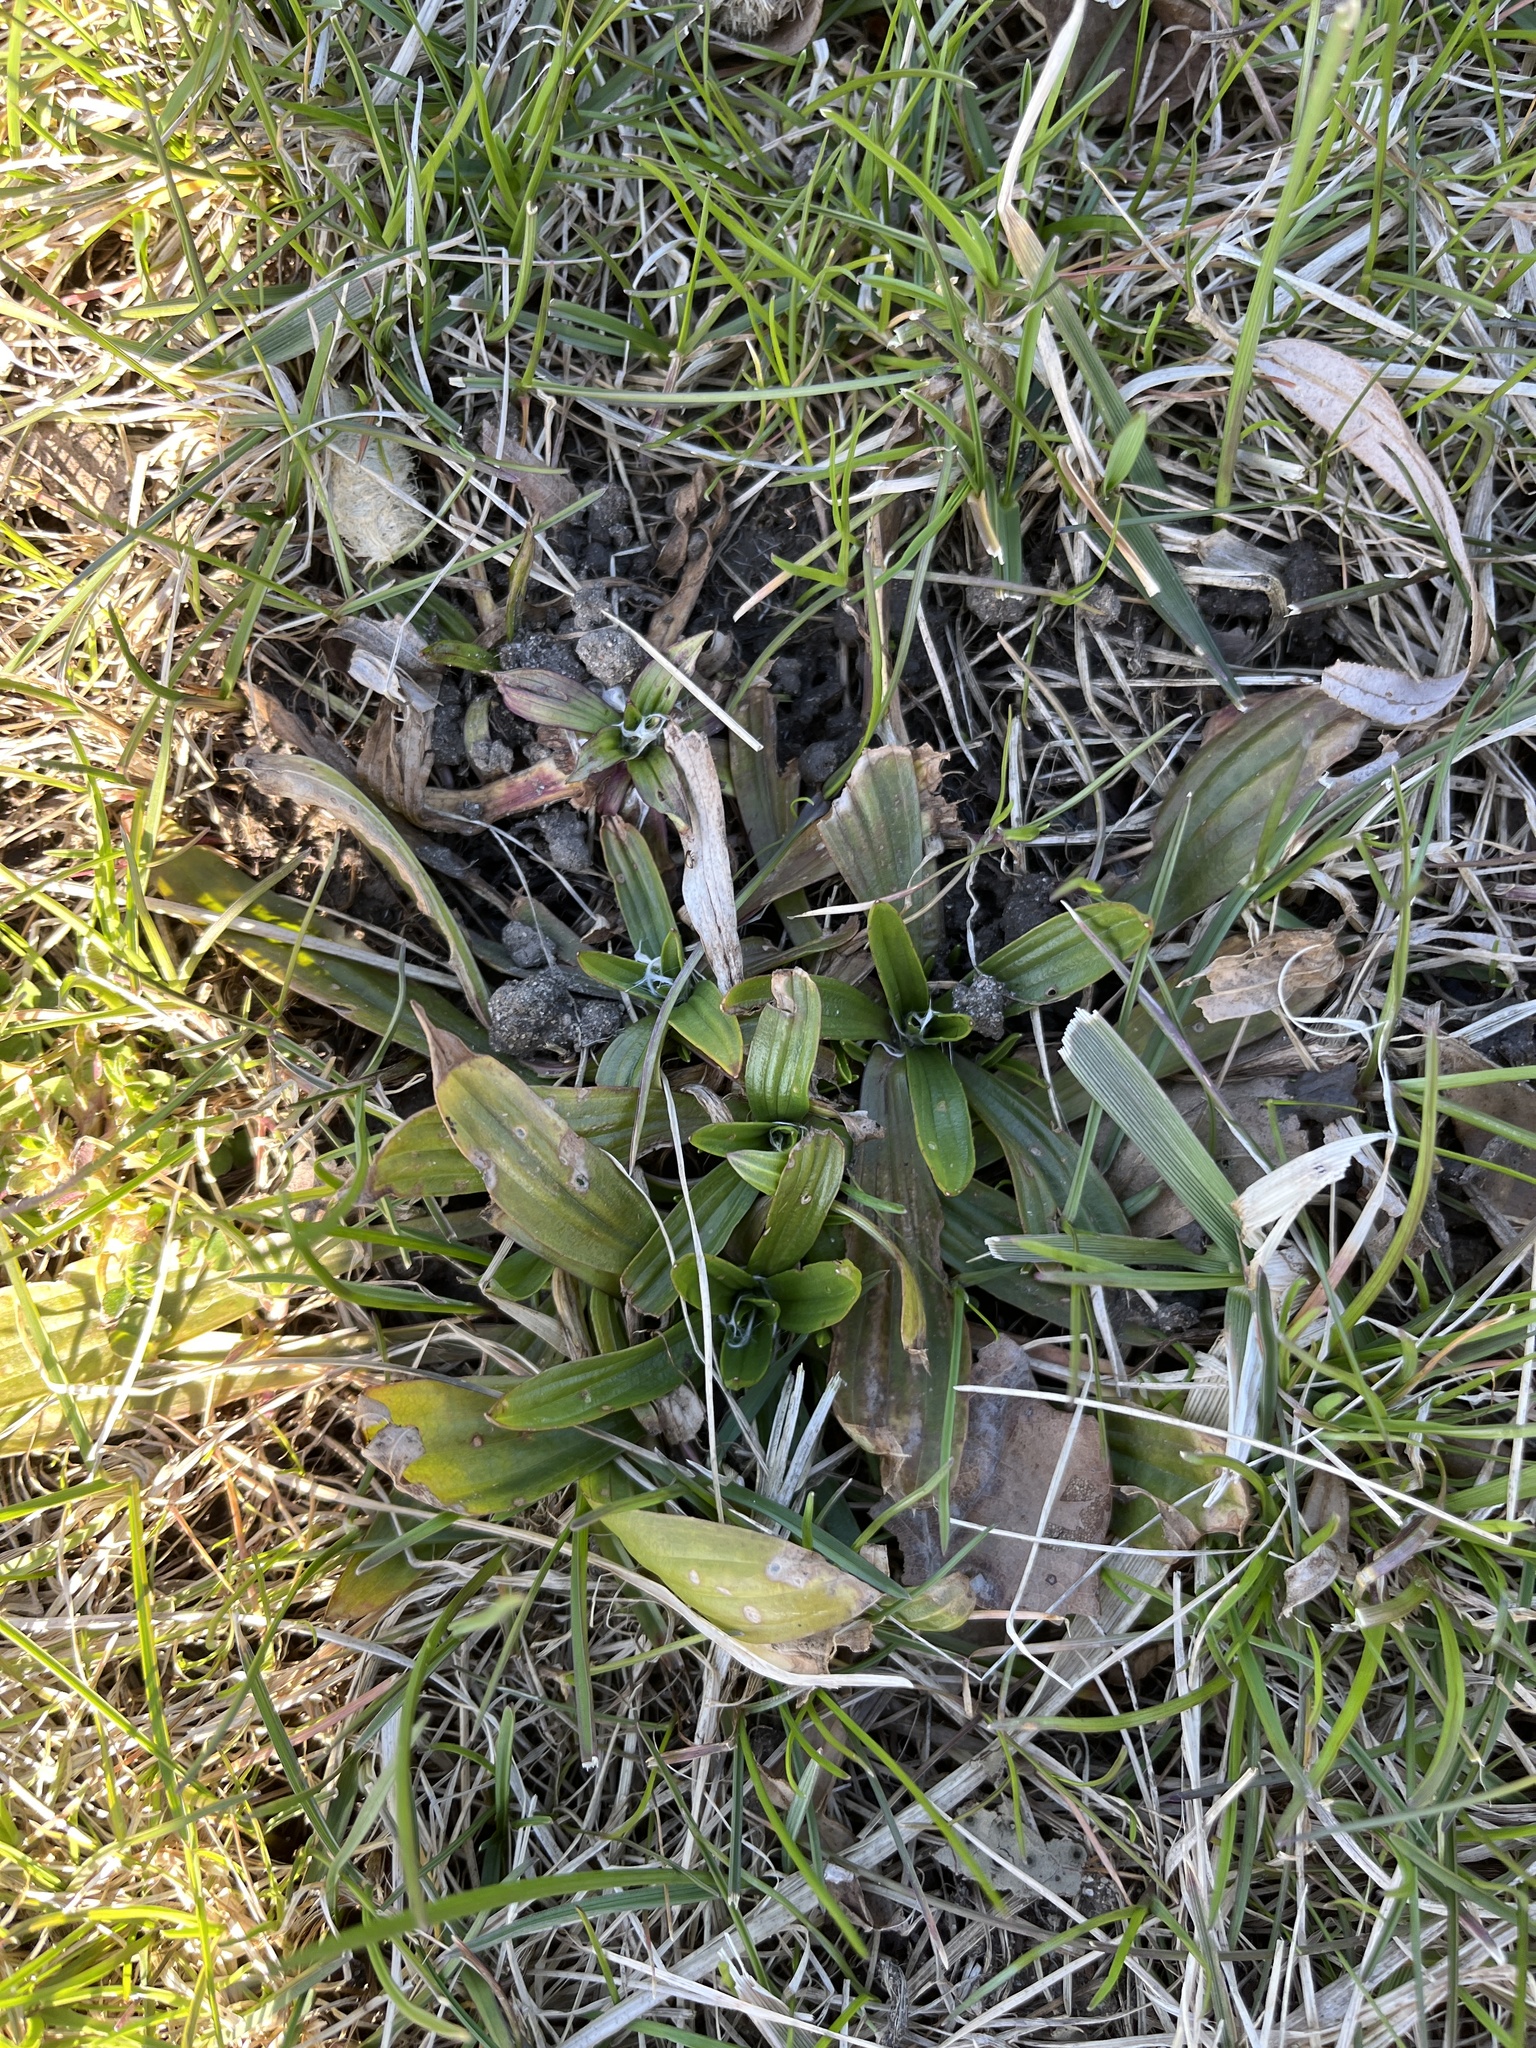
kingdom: Plantae
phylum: Tracheophyta
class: Magnoliopsida
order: Lamiales
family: Plantaginaceae
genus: Plantago
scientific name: Plantago lanceolata
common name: Ribwort plantain
